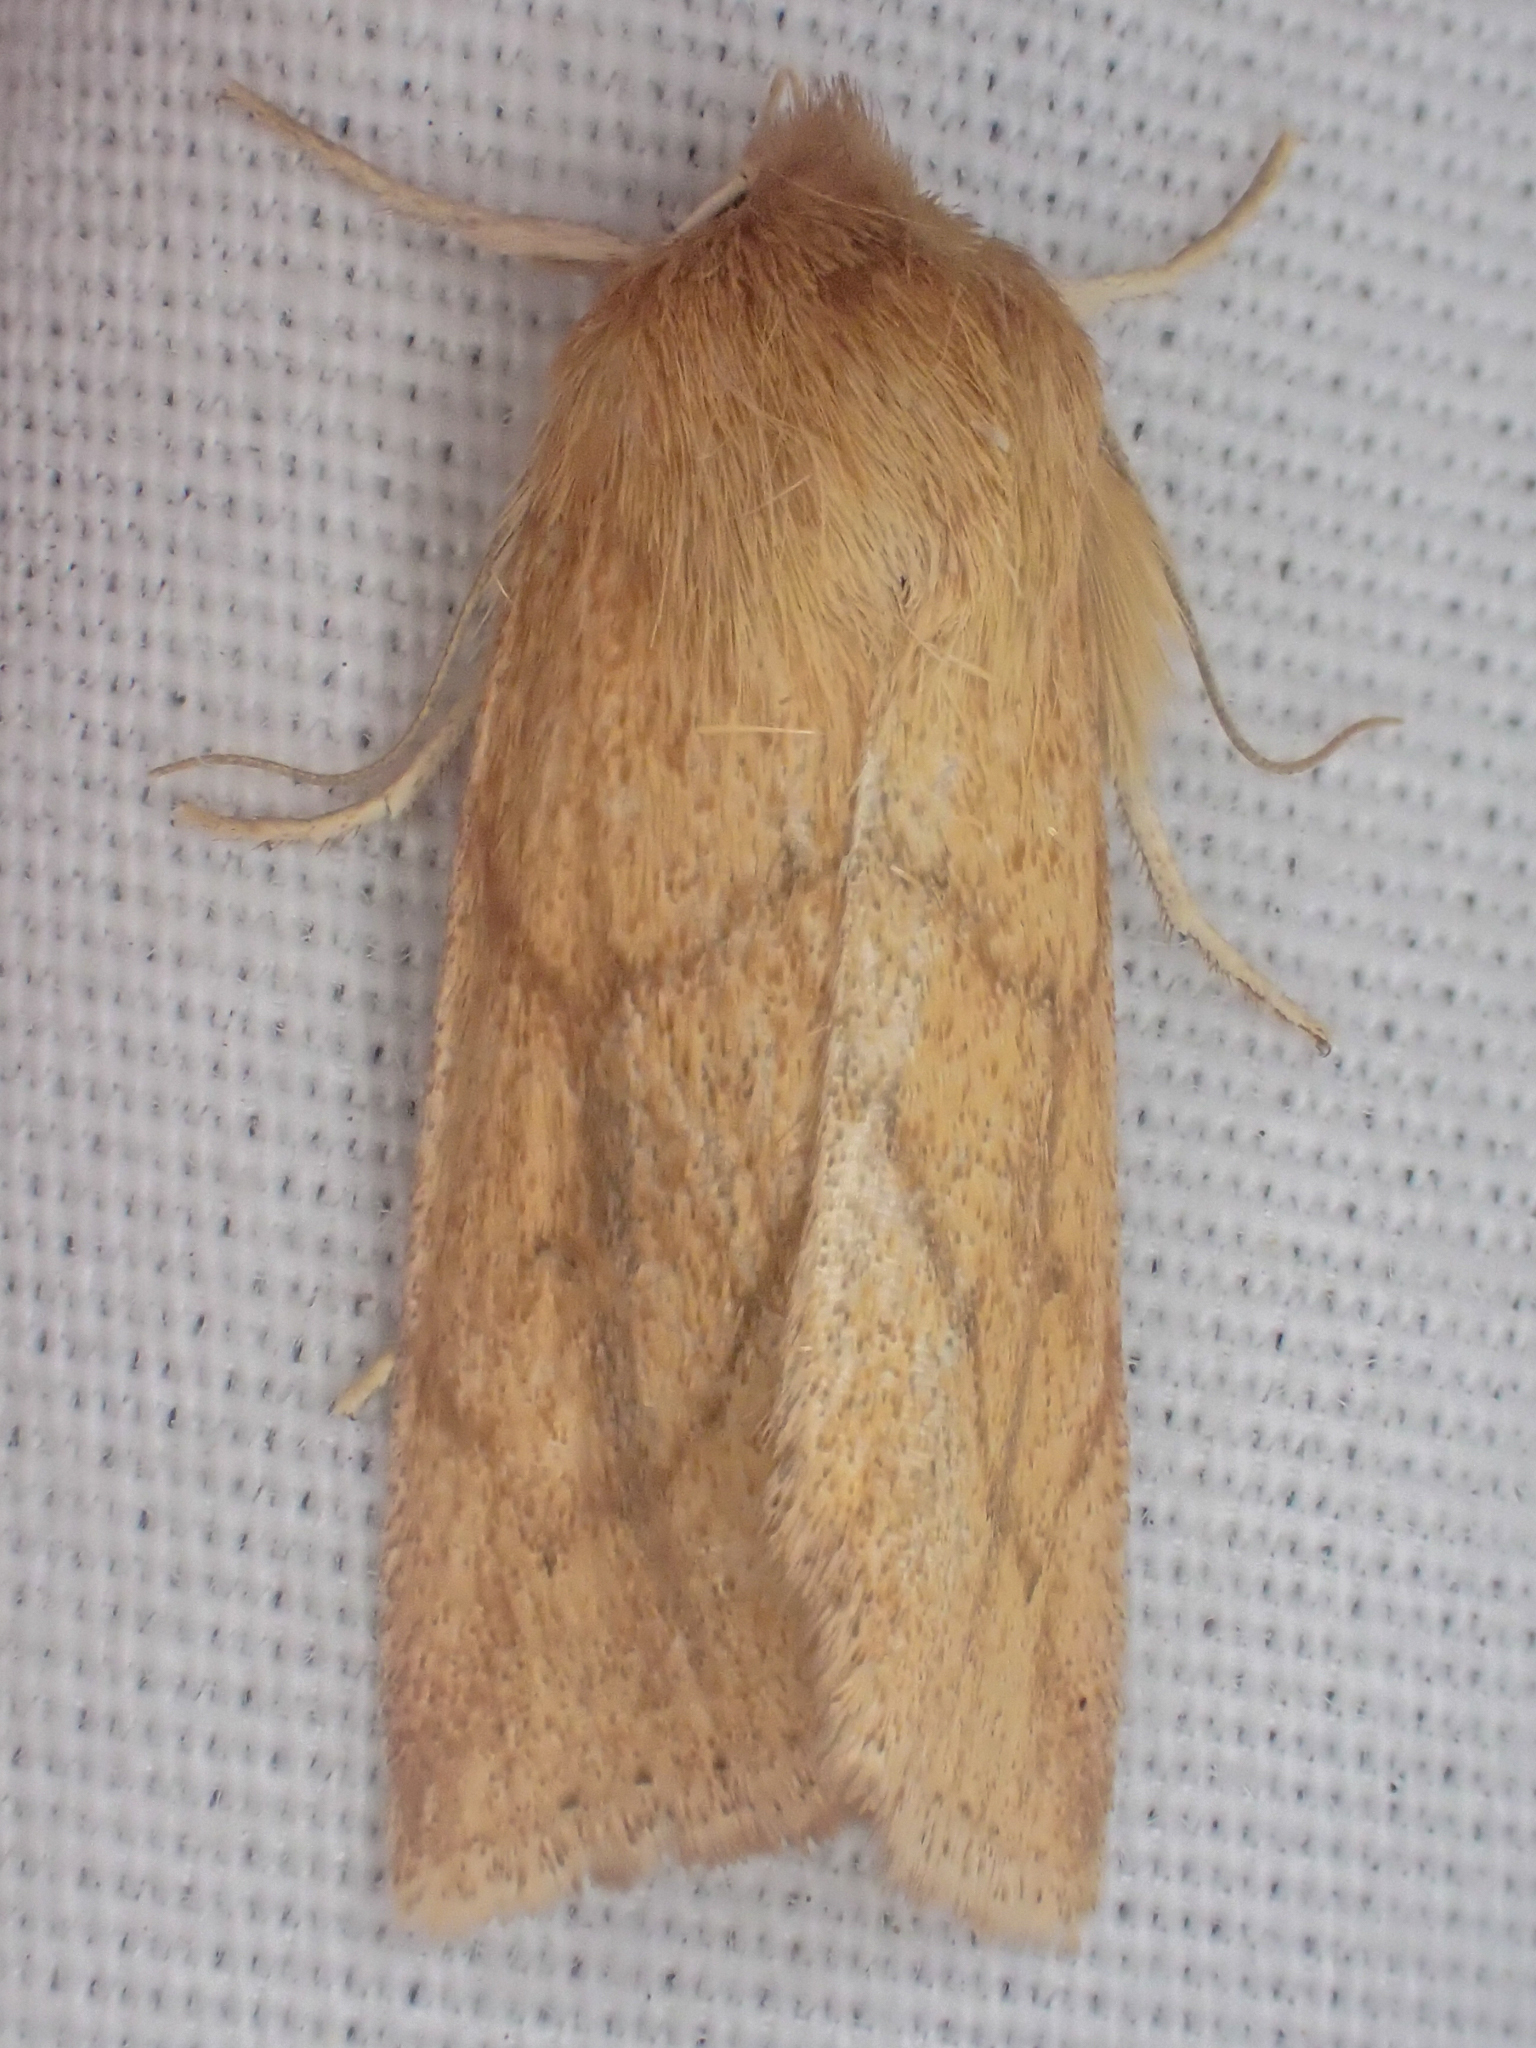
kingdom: Animalia
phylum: Arthropoda
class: Insecta
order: Lepidoptera
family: Noctuidae
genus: Zosteropoda
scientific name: Zosteropoda hirtipes
